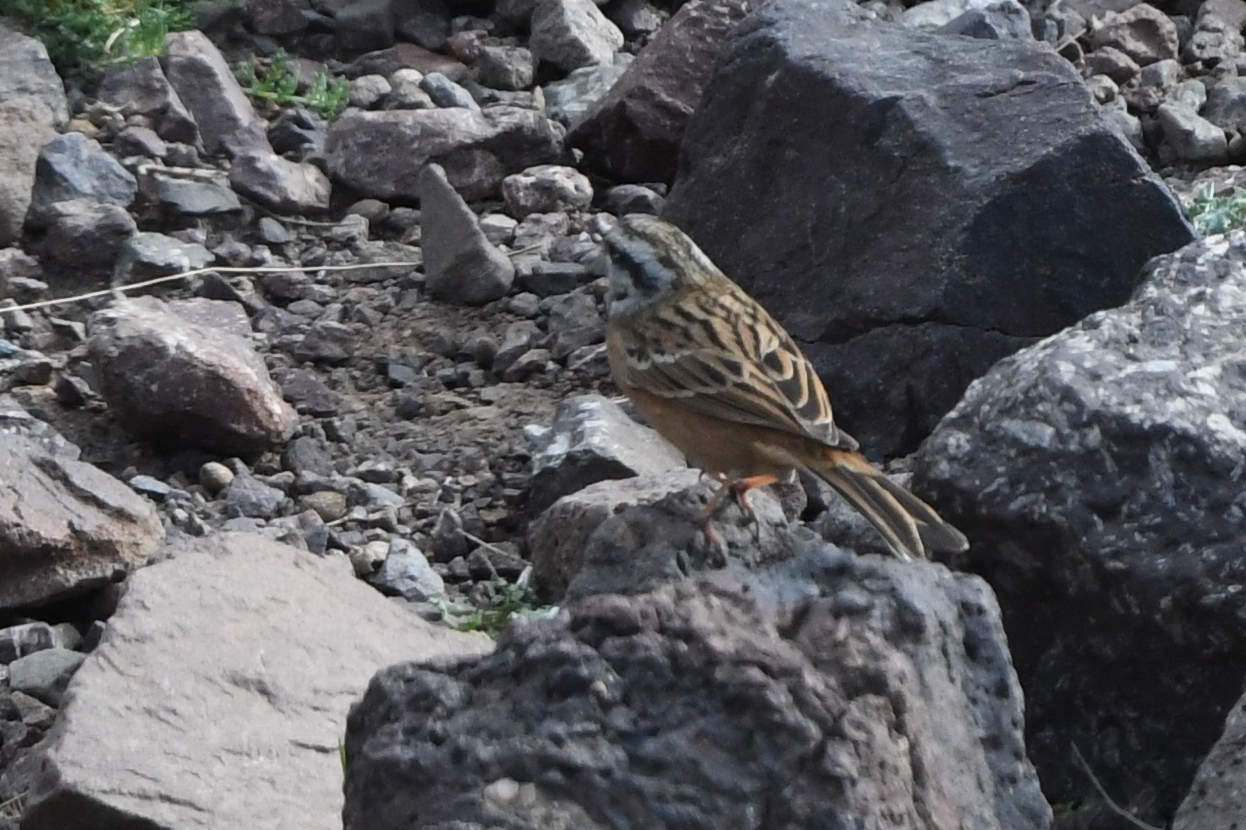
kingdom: Animalia
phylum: Chordata
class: Aves
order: Passeriformes
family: Emberizidae
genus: Emberiza
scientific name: Emberiza cia
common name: Rock bunting
